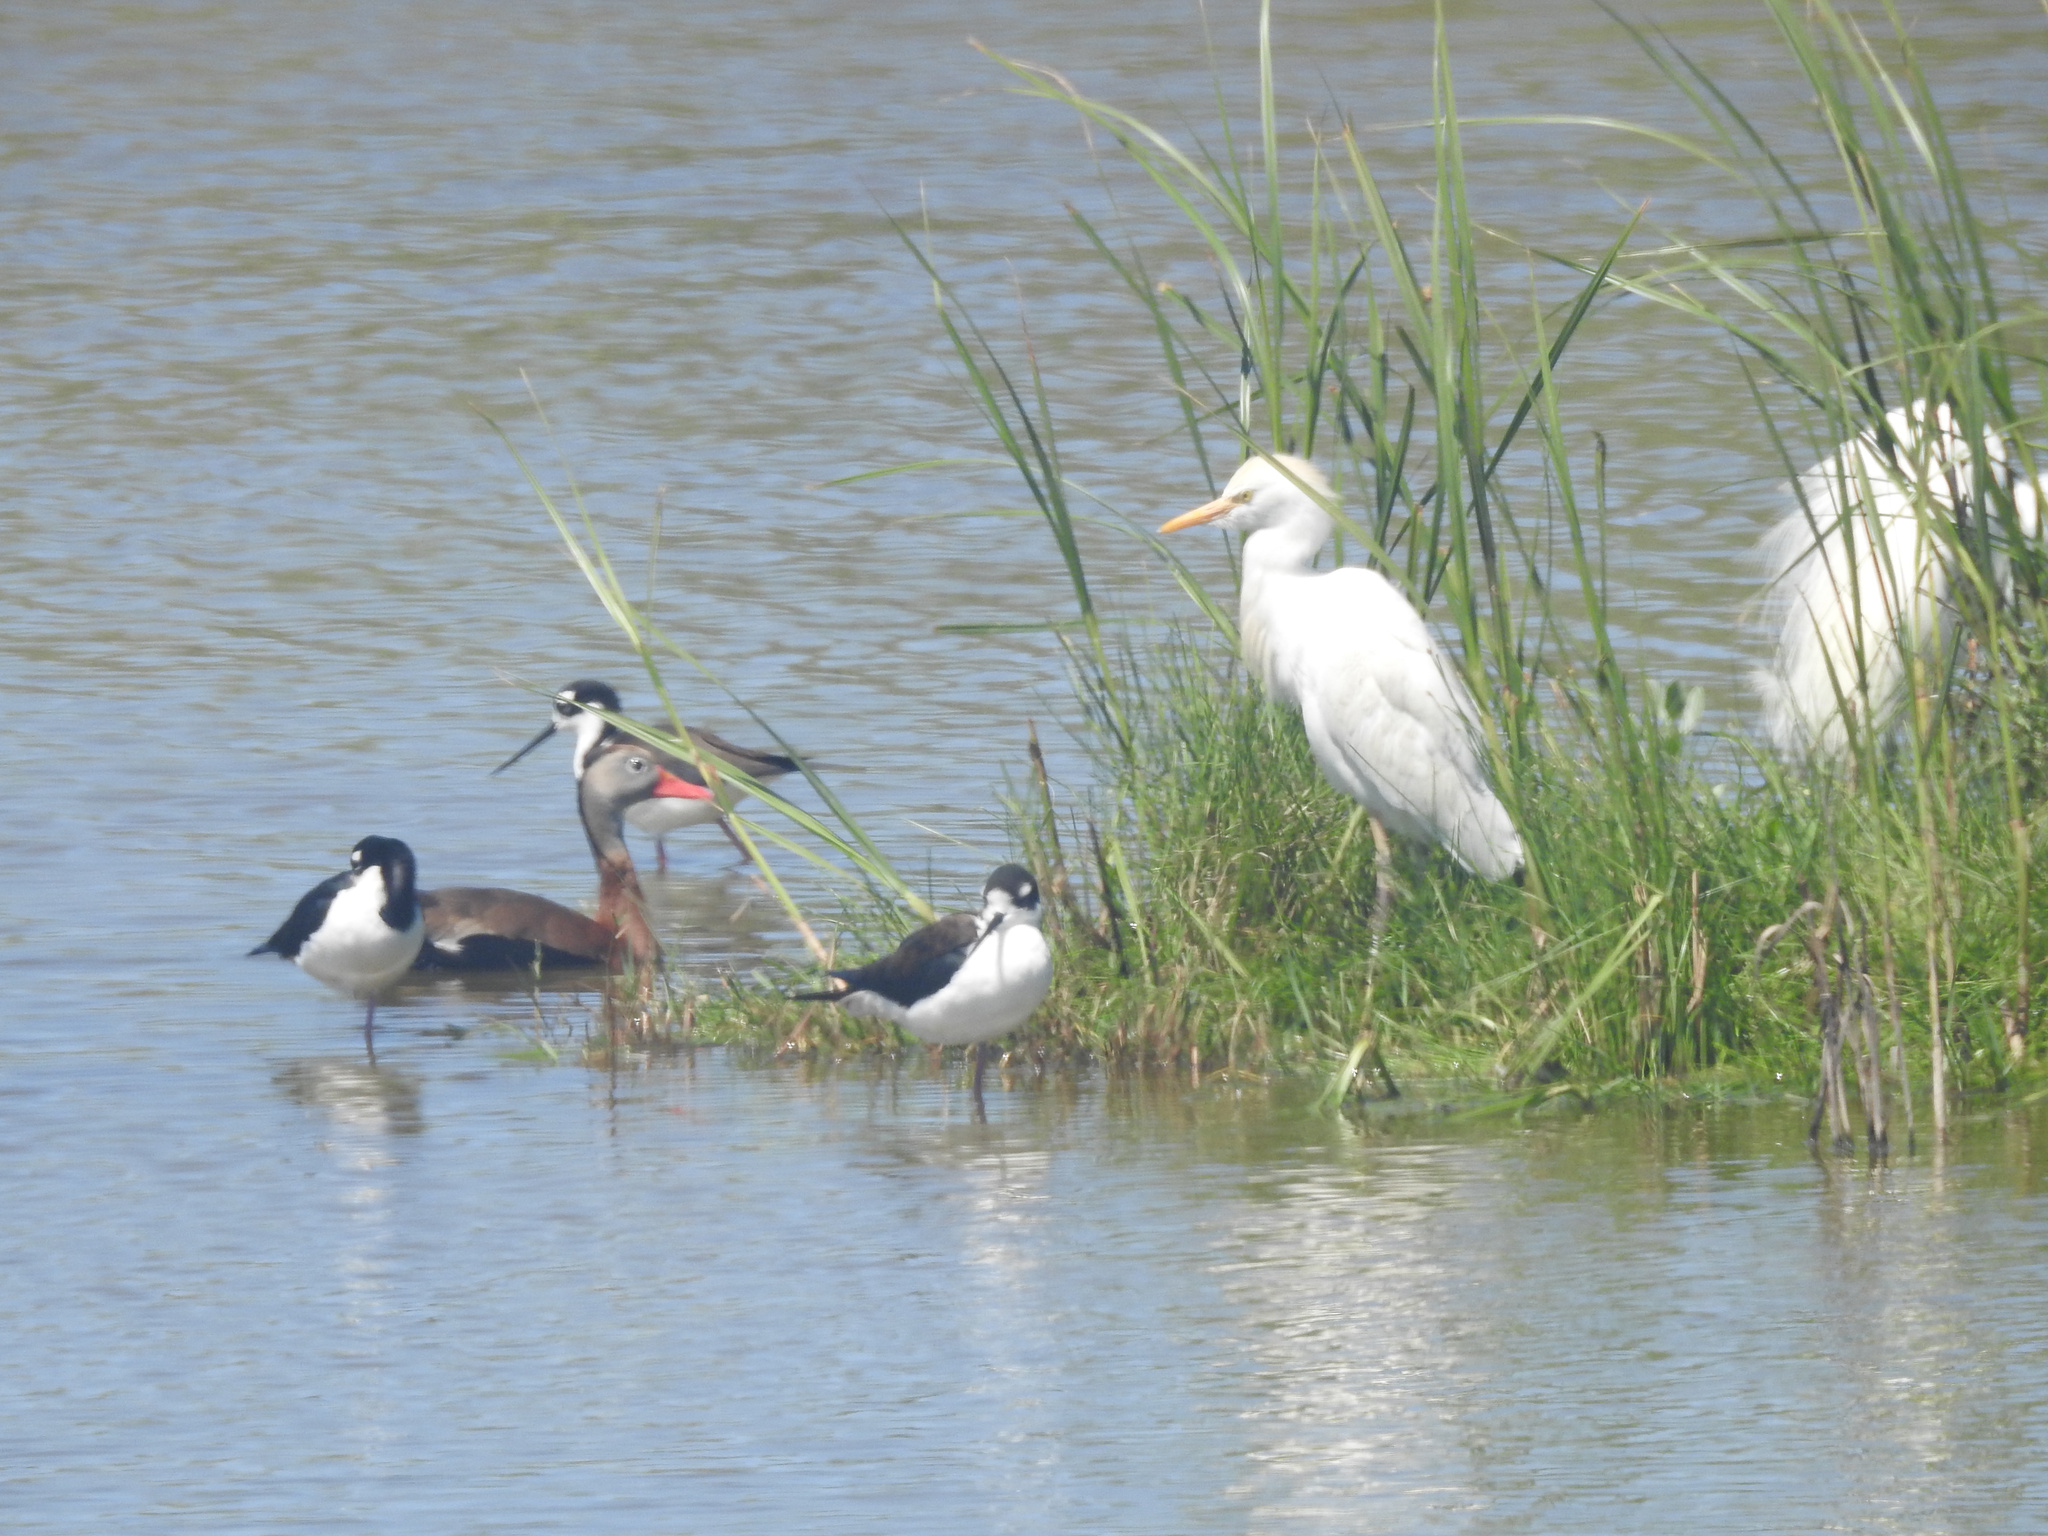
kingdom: Animalia
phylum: Chordata
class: Aves
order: Anseriformes
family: Anatidae
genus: Dendrocygna
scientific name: Dendrocygna autumnalis
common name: Black-bellied whistling duck
